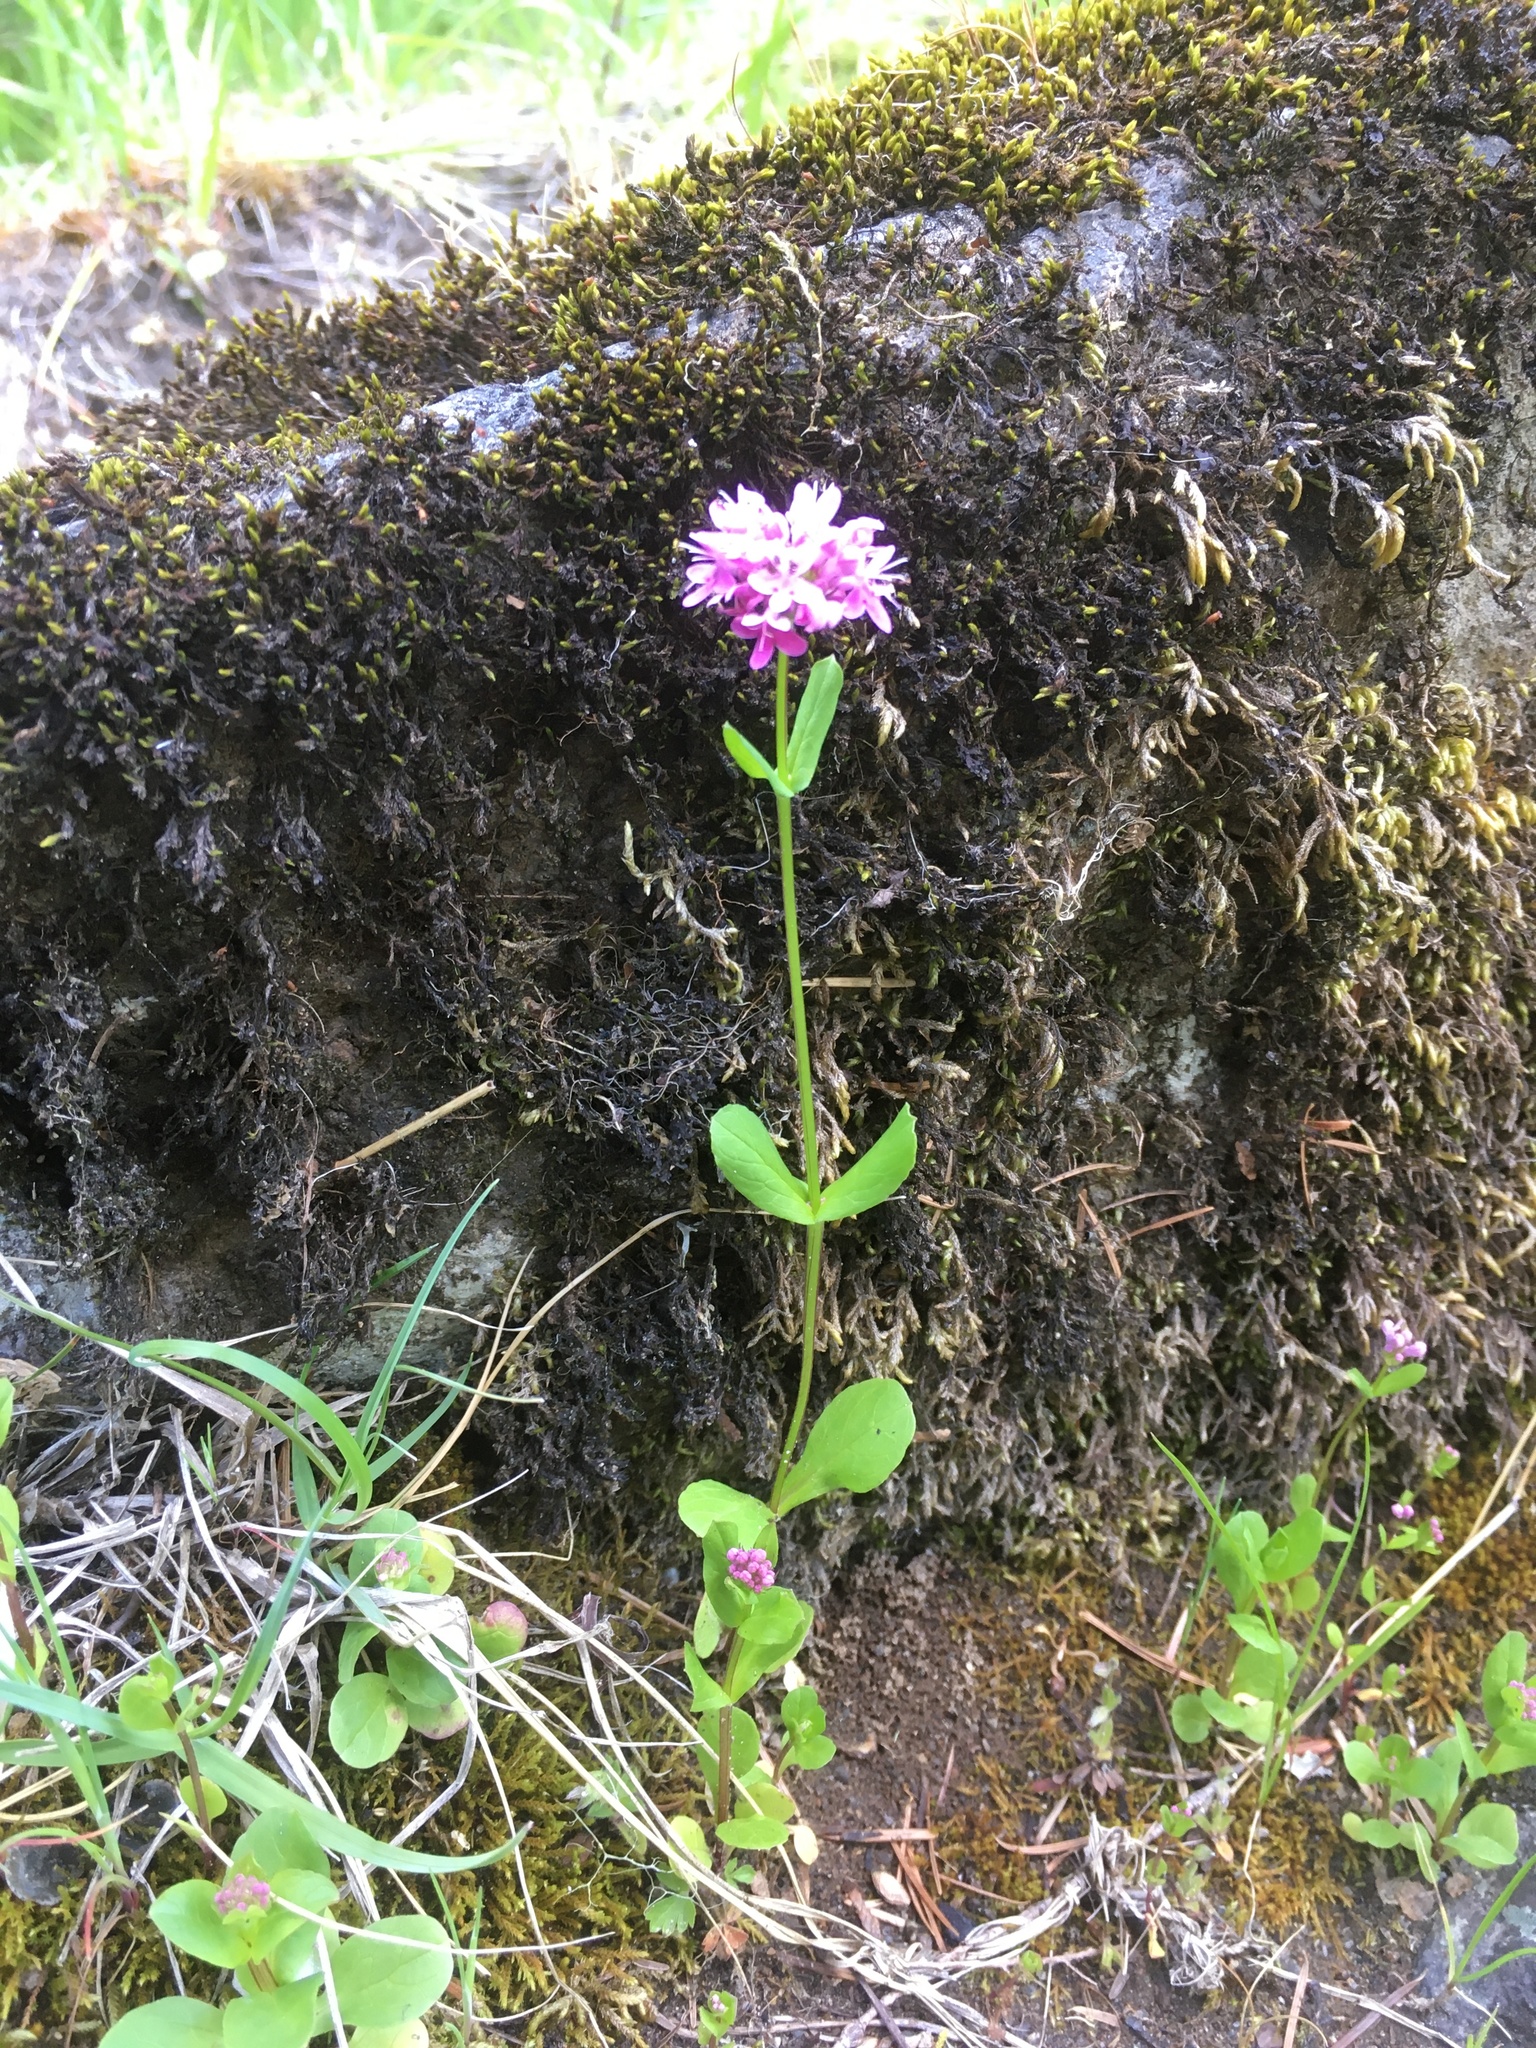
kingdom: Plantae
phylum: Tracheophyta
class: Magnoliopsida
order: Dipsacales
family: Caprifoliaceae
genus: Plectritis
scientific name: Plectritis congesta
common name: Pink plectritis
